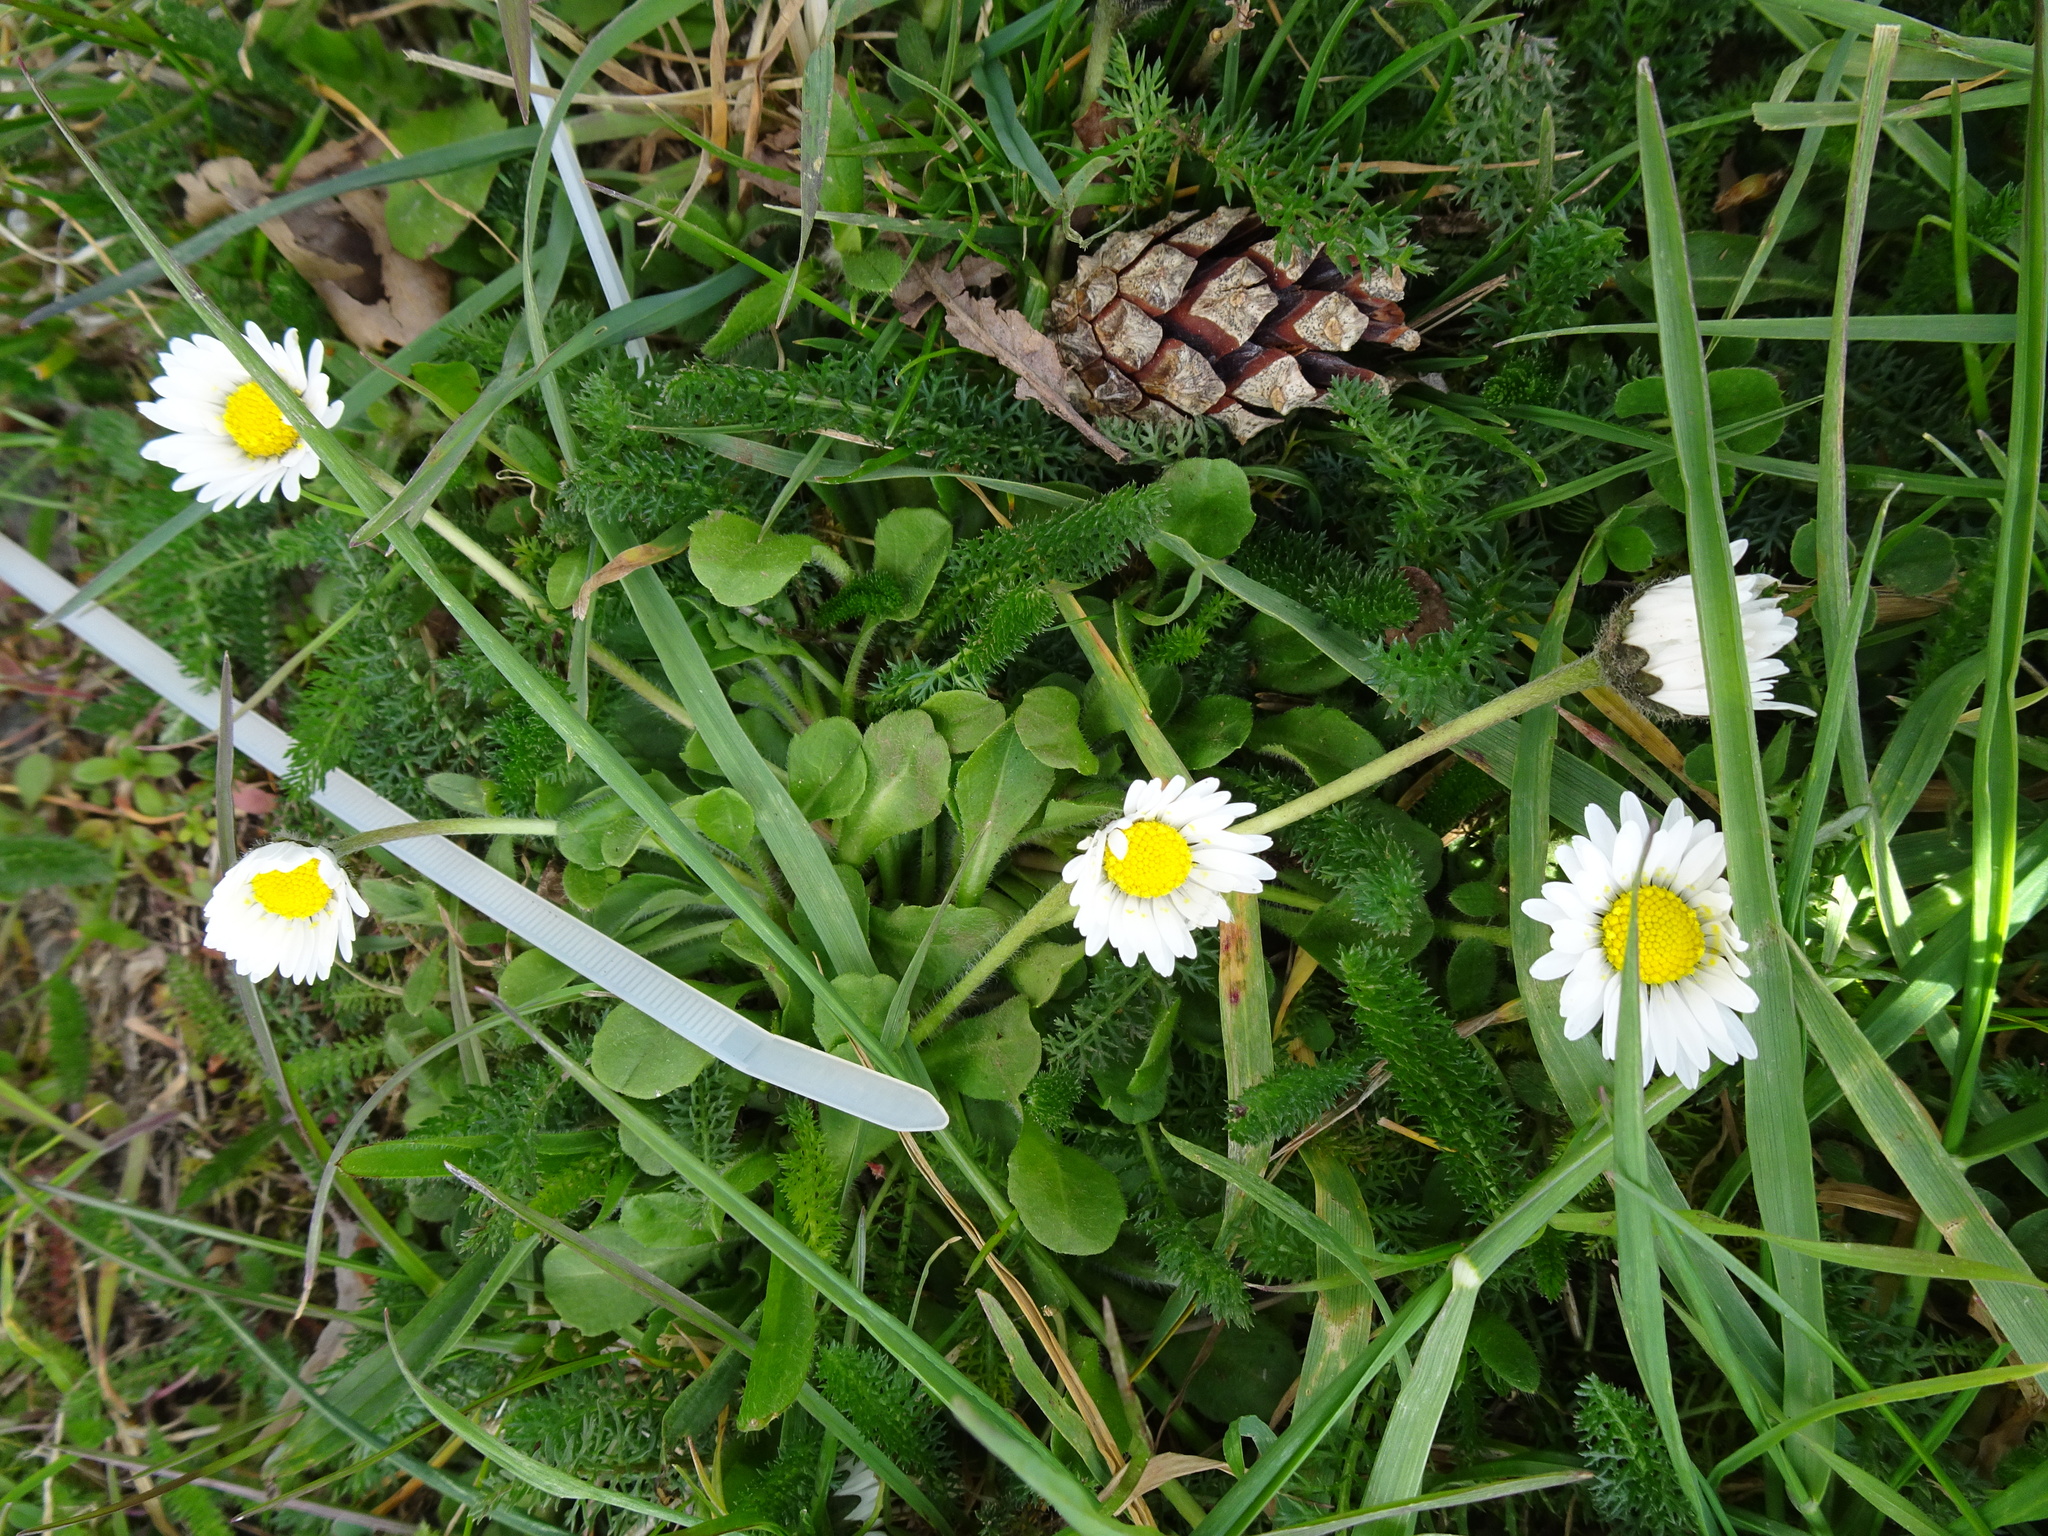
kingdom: Plantae
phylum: Tracheophyta
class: Magnoliopsida
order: Asterales
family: Asteraceae
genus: Bellis
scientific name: Bellis perennis
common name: Lawndaisy
